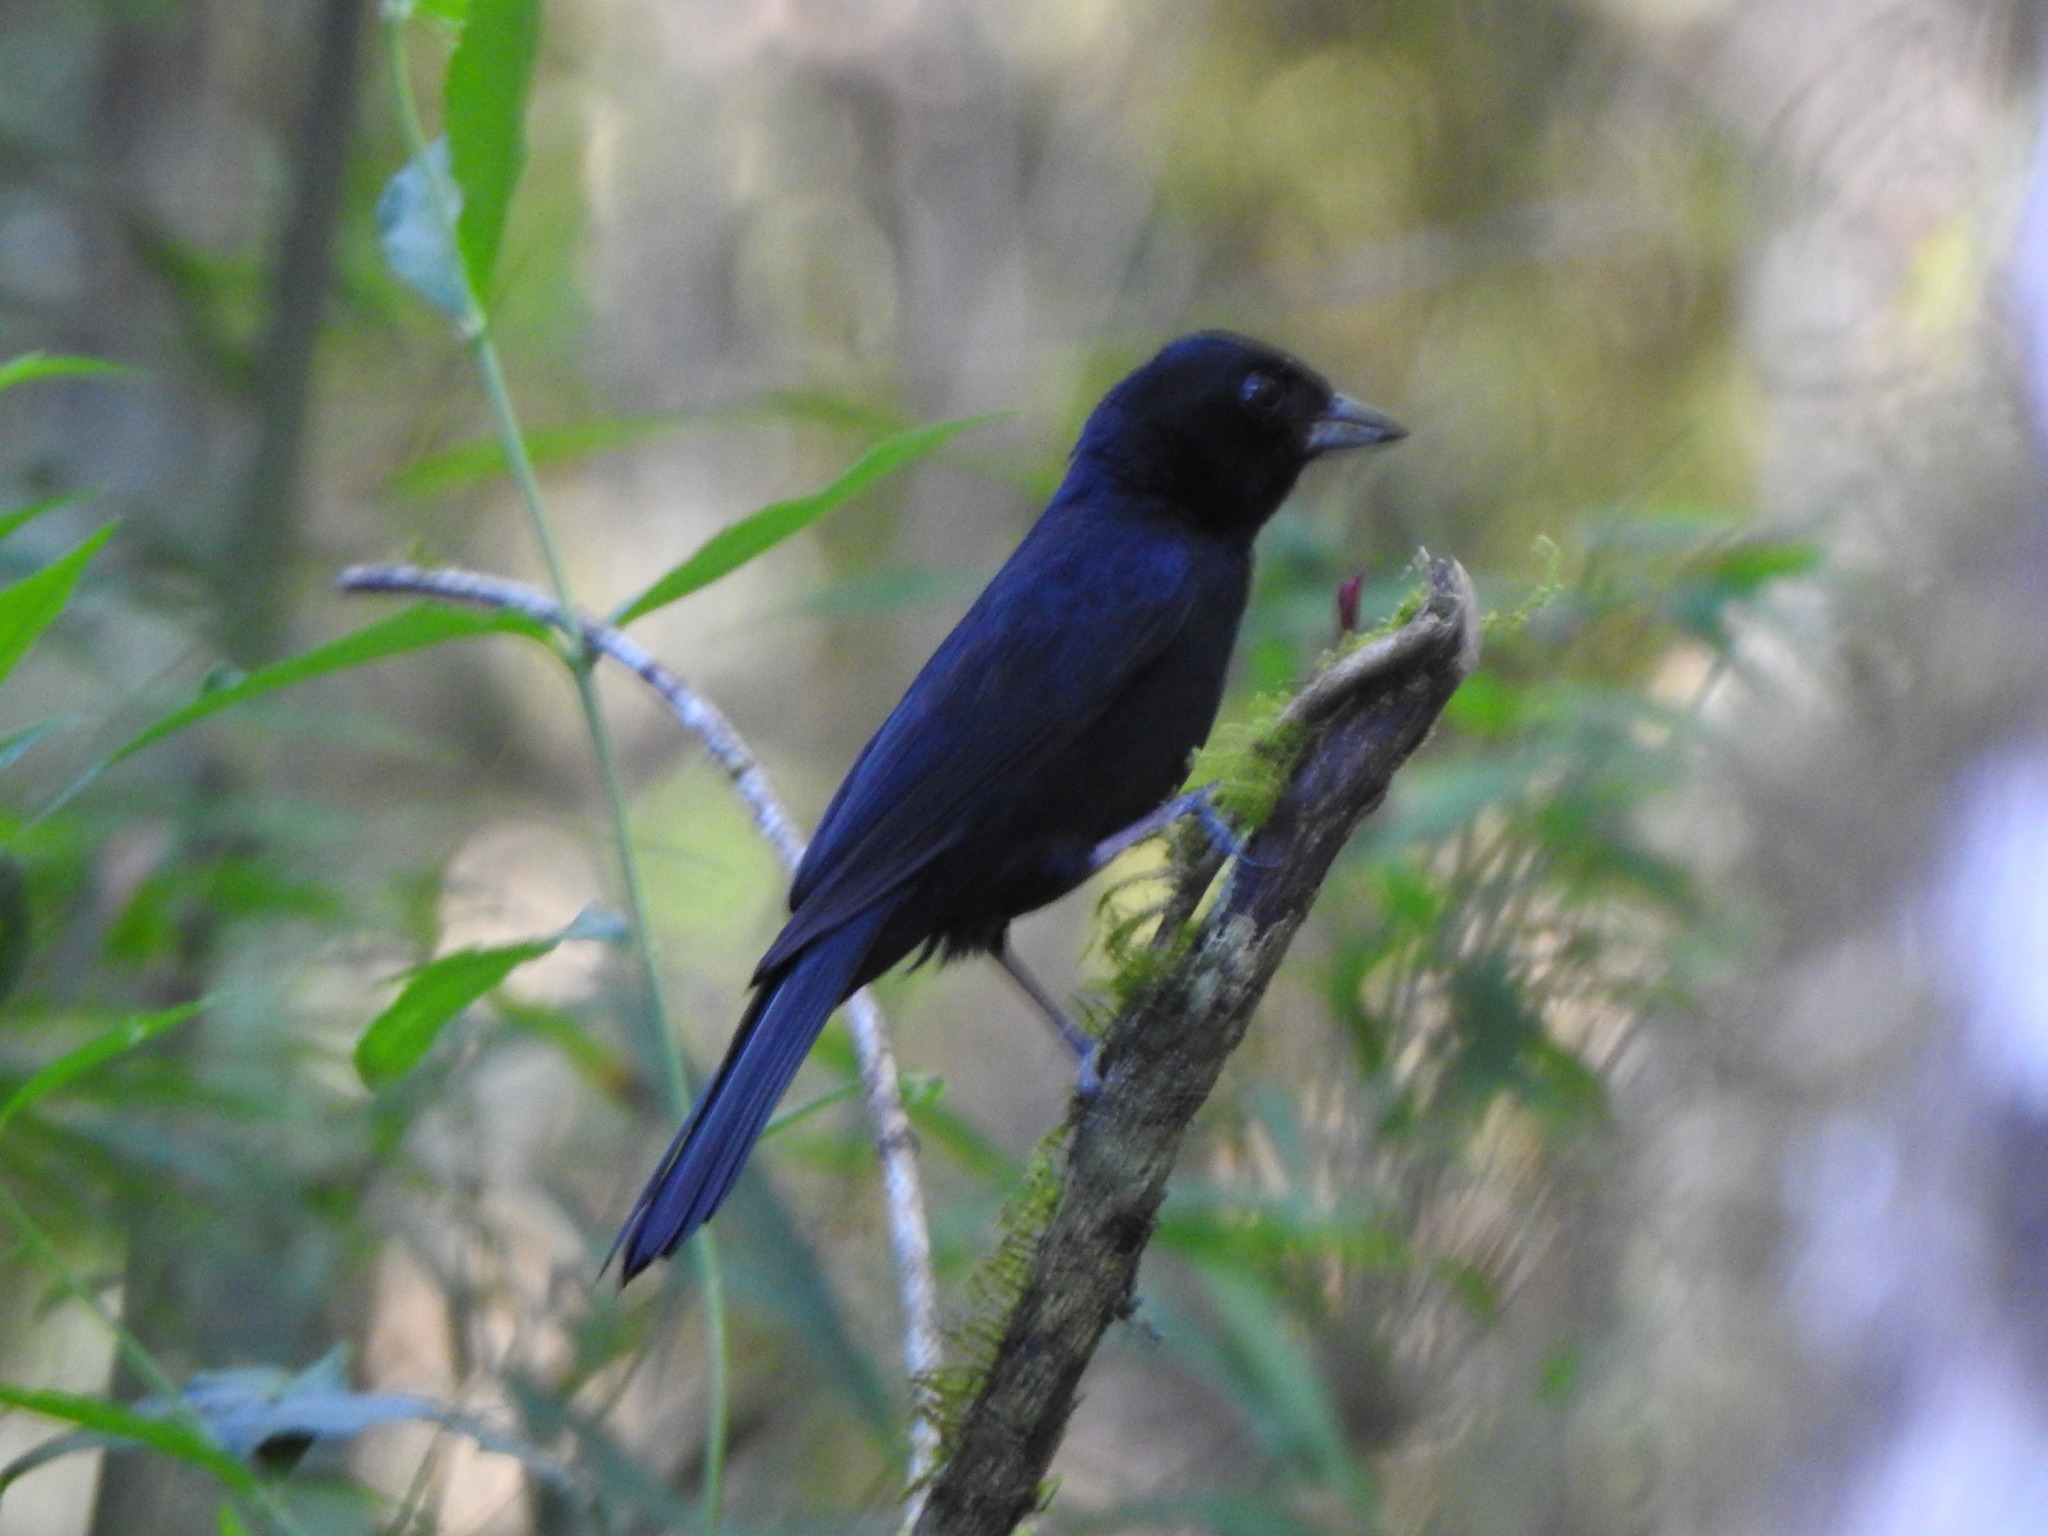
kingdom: Animalia
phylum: Chordata
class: Aves
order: Passeriformes
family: Thraupidae
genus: Tachyphonus
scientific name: Tachyphonus coronatus
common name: Ruby-crowned tanager
